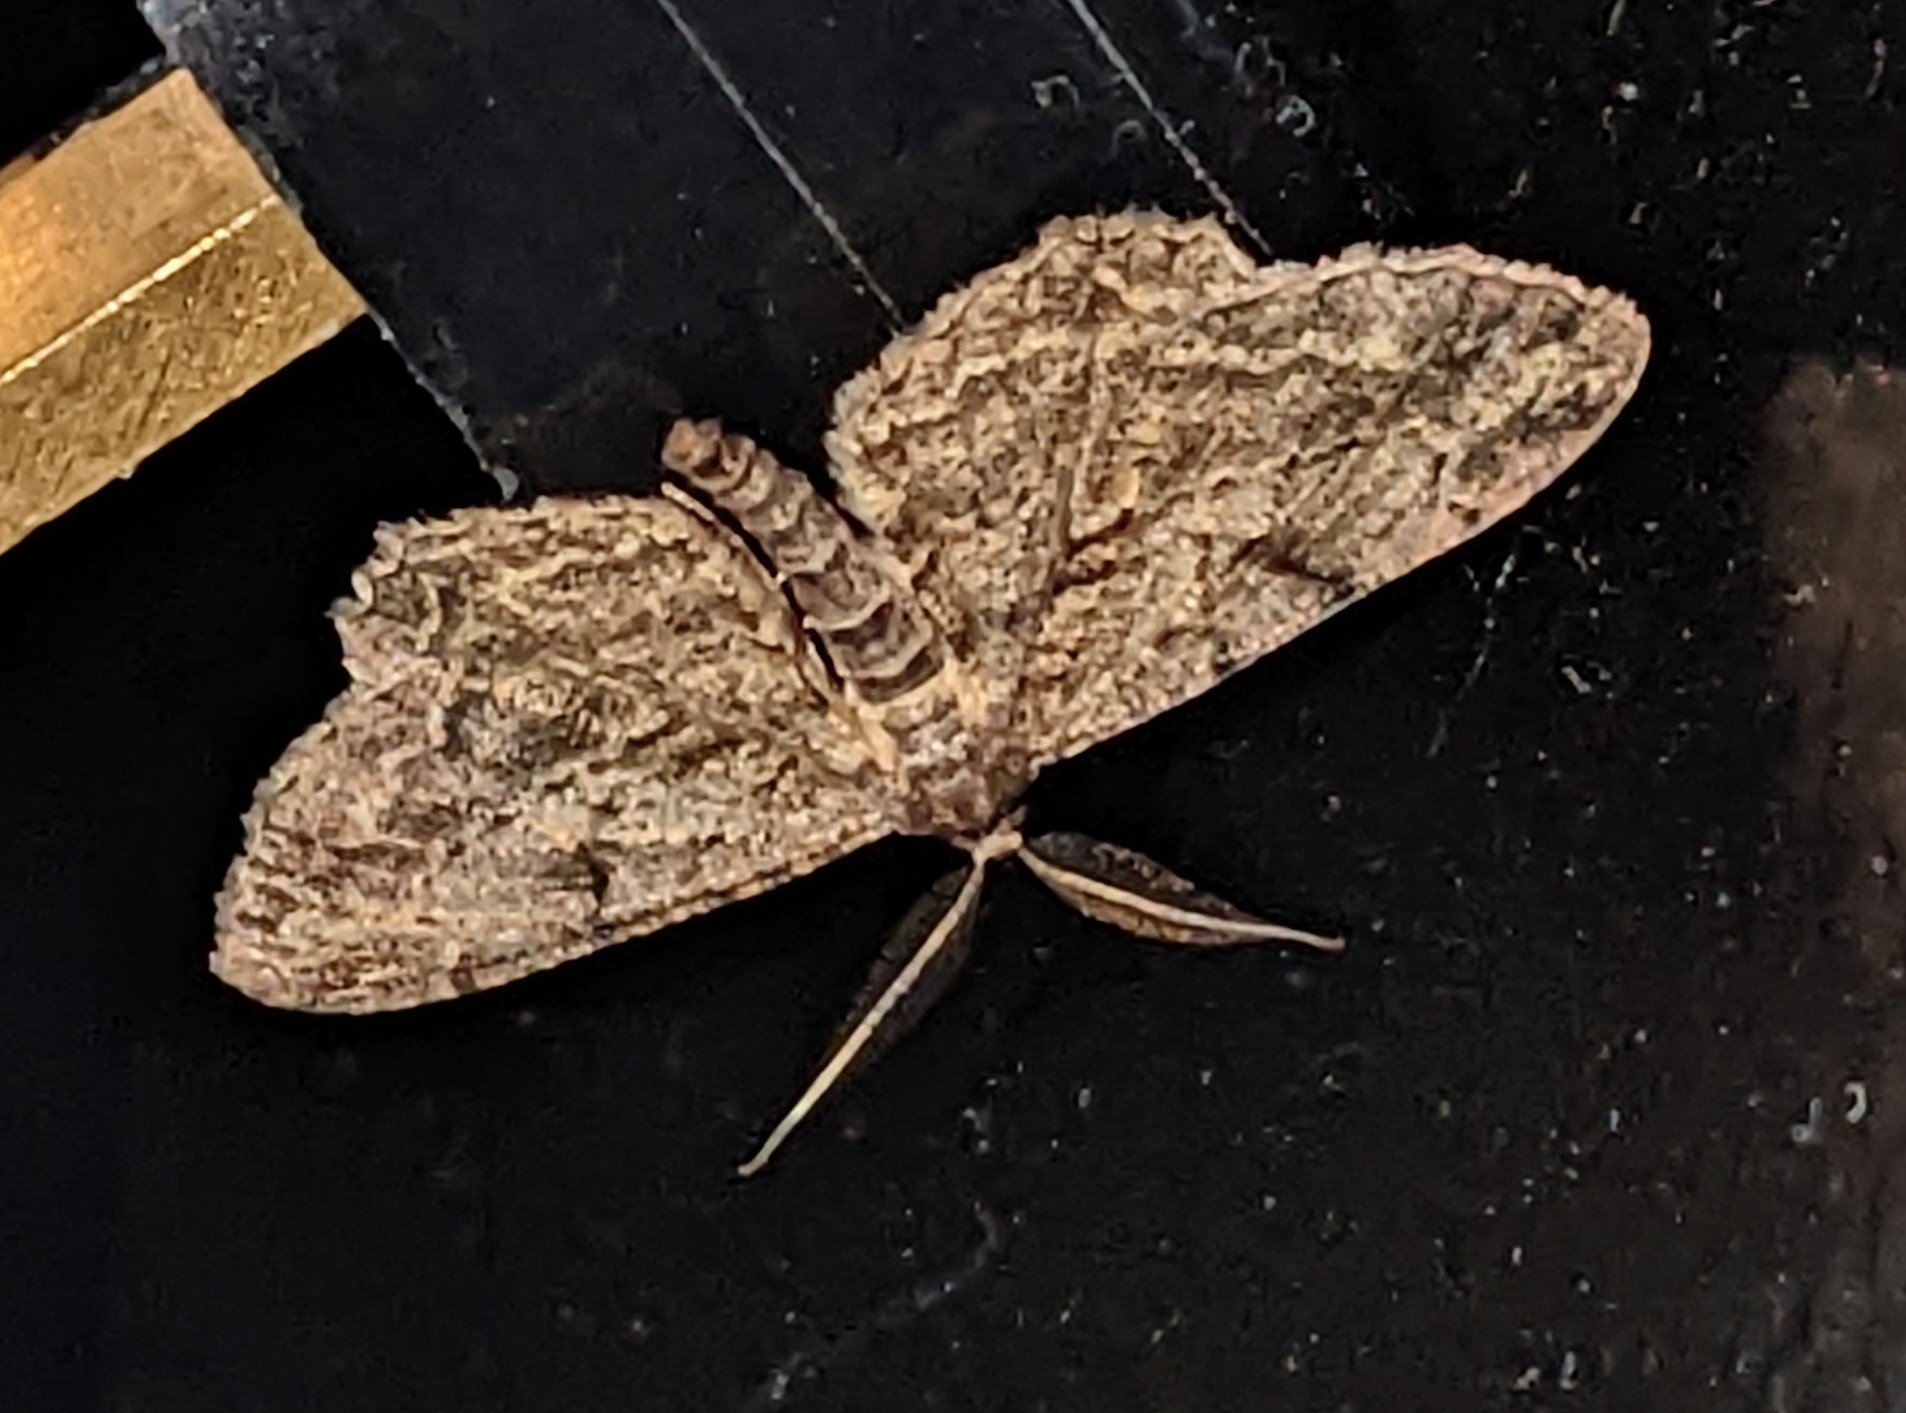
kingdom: Animalia
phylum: Arthropoda
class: Insecta
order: Lepidoptera
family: Geometridae
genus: Peribatodes
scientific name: Peribatodes rhomboidaria
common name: Willow beauty
